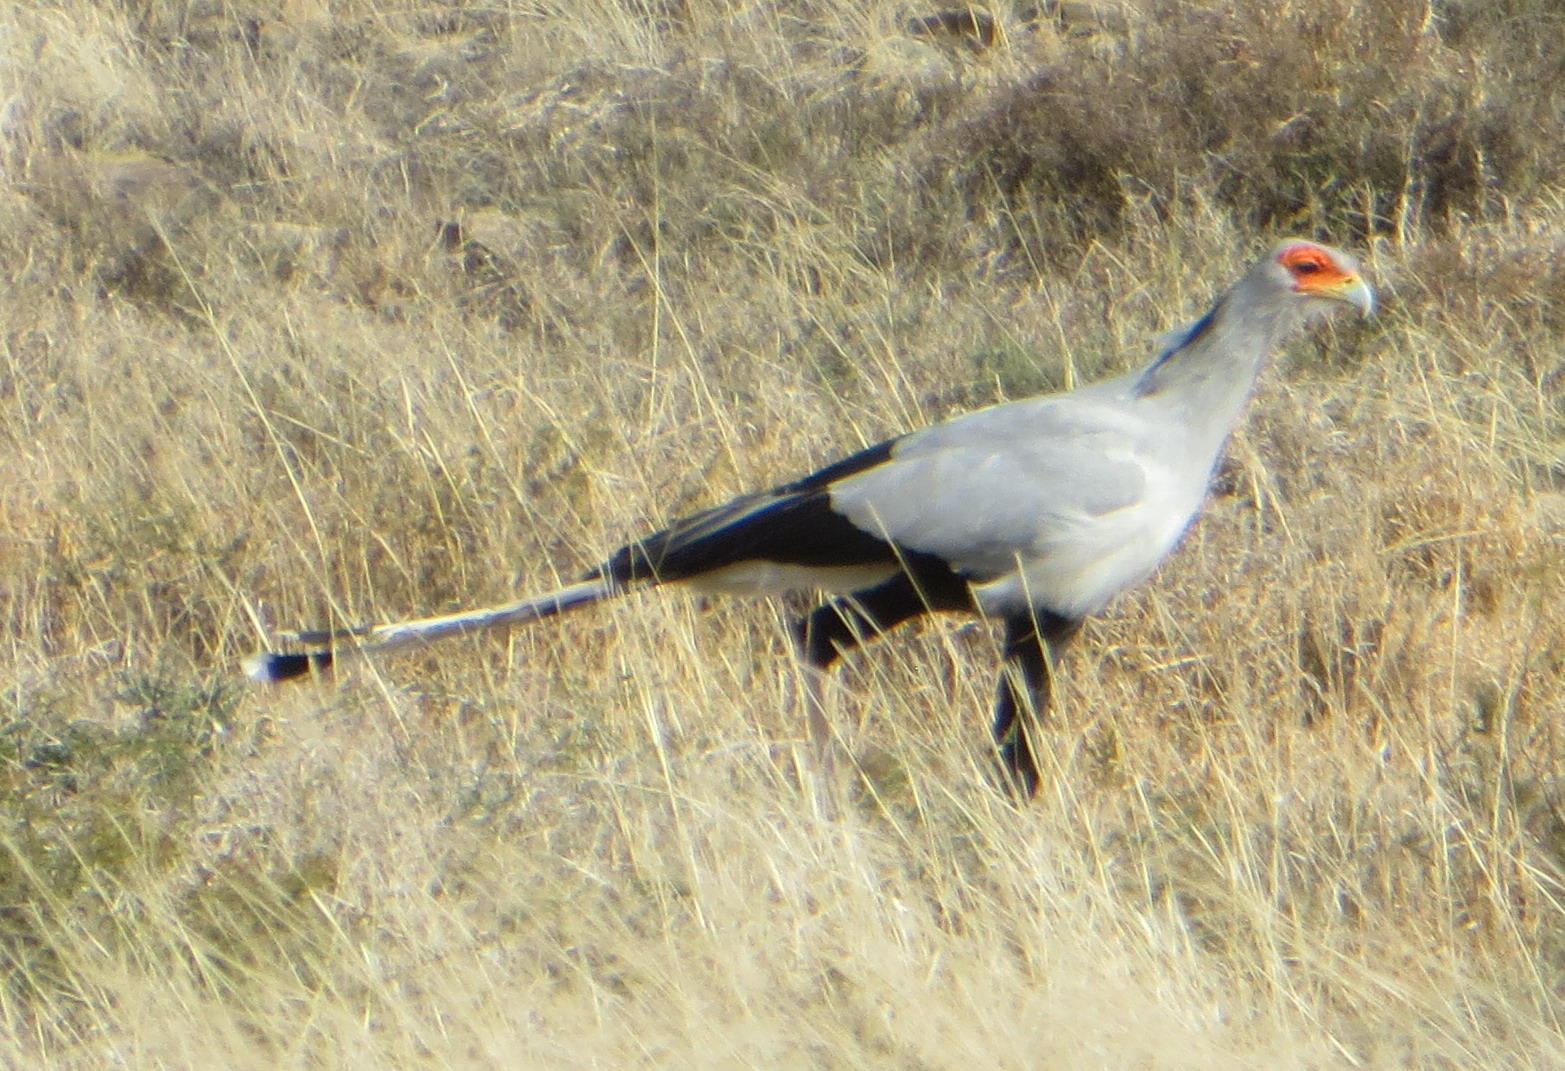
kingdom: Animalia
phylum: Chordata
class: Aves
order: Accipitriformes
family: Sagittariidae
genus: Sagittarius
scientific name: Sagittarius serpentarius
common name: Secretarybird
